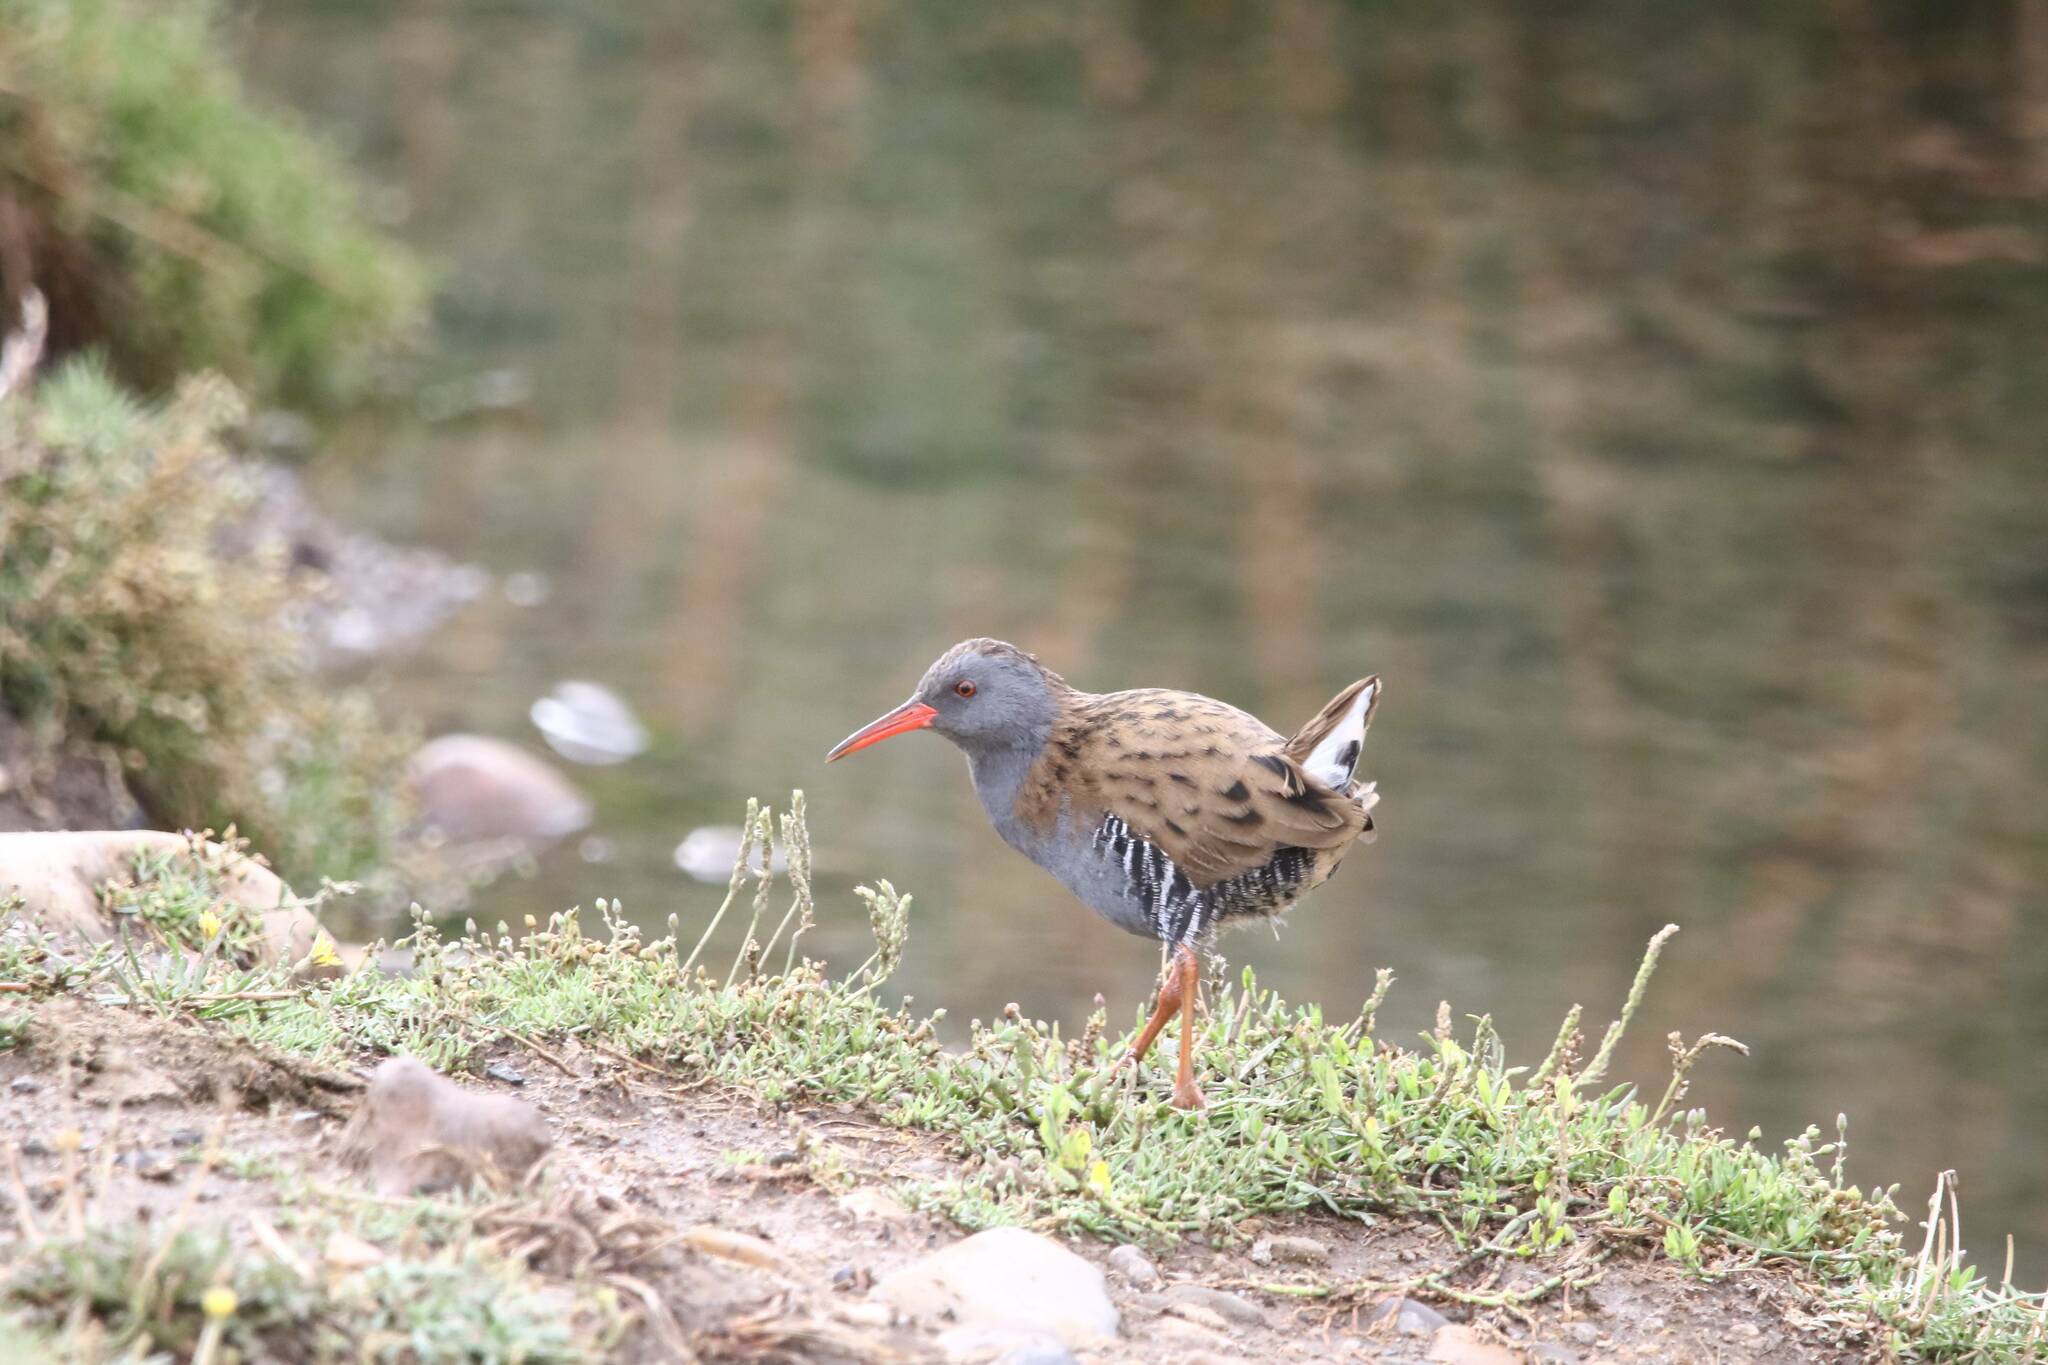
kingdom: Animalia
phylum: Chordata
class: Aves
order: Gruiformes
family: Rallidae
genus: Rallus
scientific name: Rallus aquaticus
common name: Water rail
